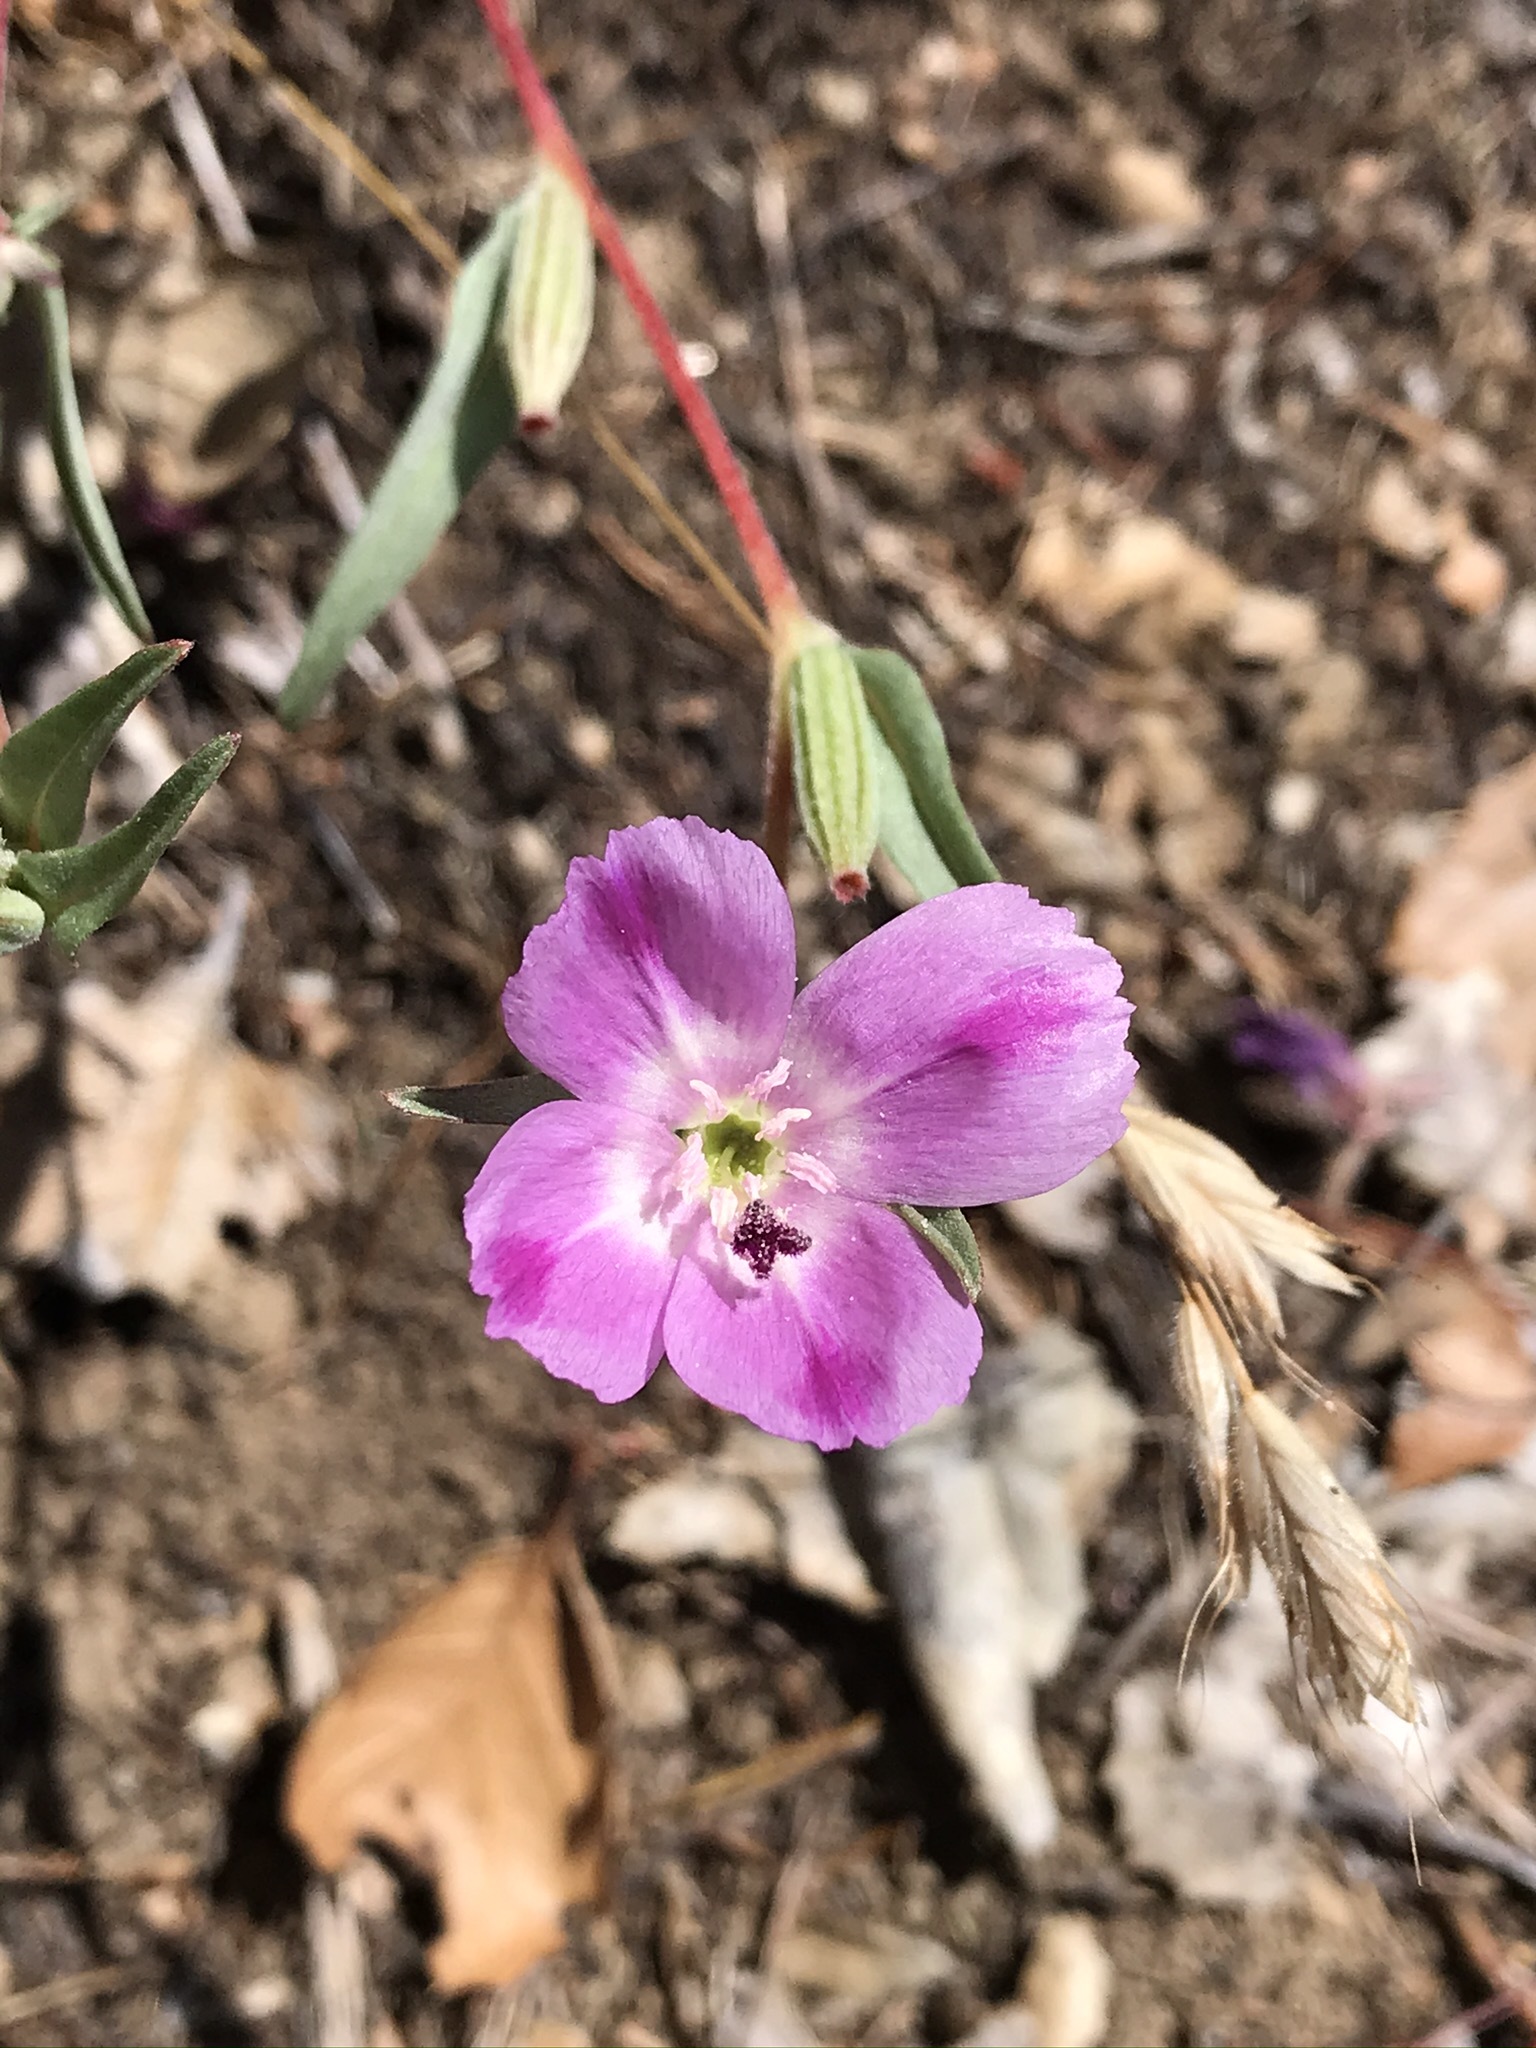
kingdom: Plantae
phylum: Tracheophyta
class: Magnoliopsida
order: Myrtales
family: Onagraceae
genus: Clarkia
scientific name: Clarkia purpurea
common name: Purple clarkia
